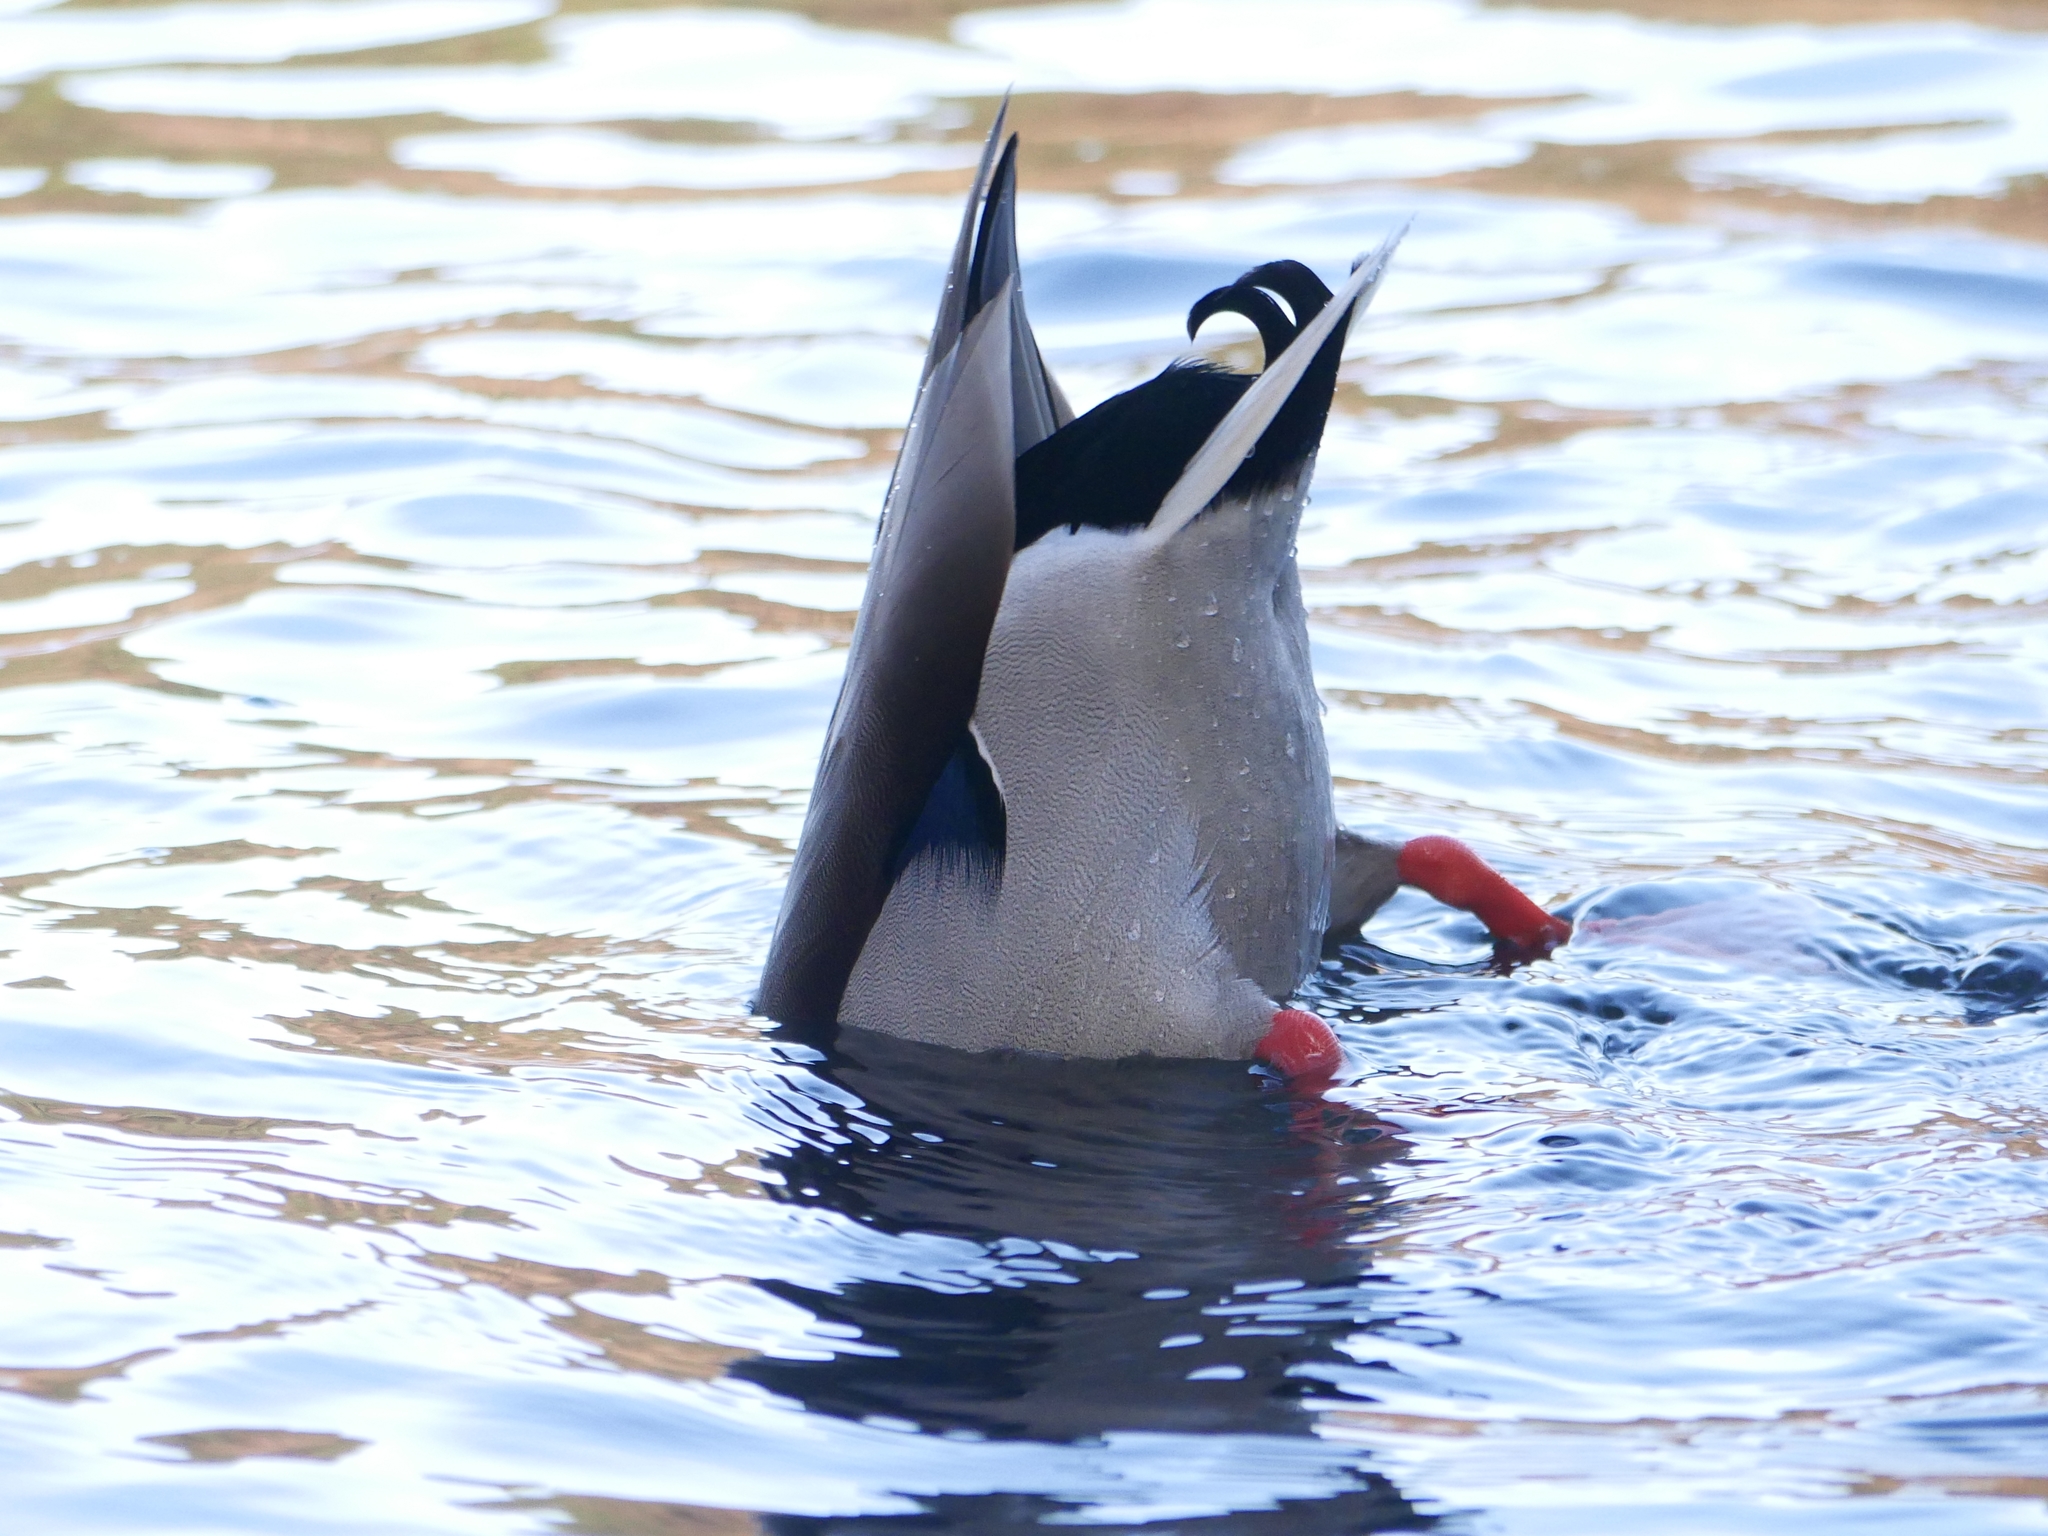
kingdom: Animalia
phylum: Chordata
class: Aves
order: Anseriformes
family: Anatidae
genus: Anas
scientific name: Anas platyrhynchos
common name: Mallard
